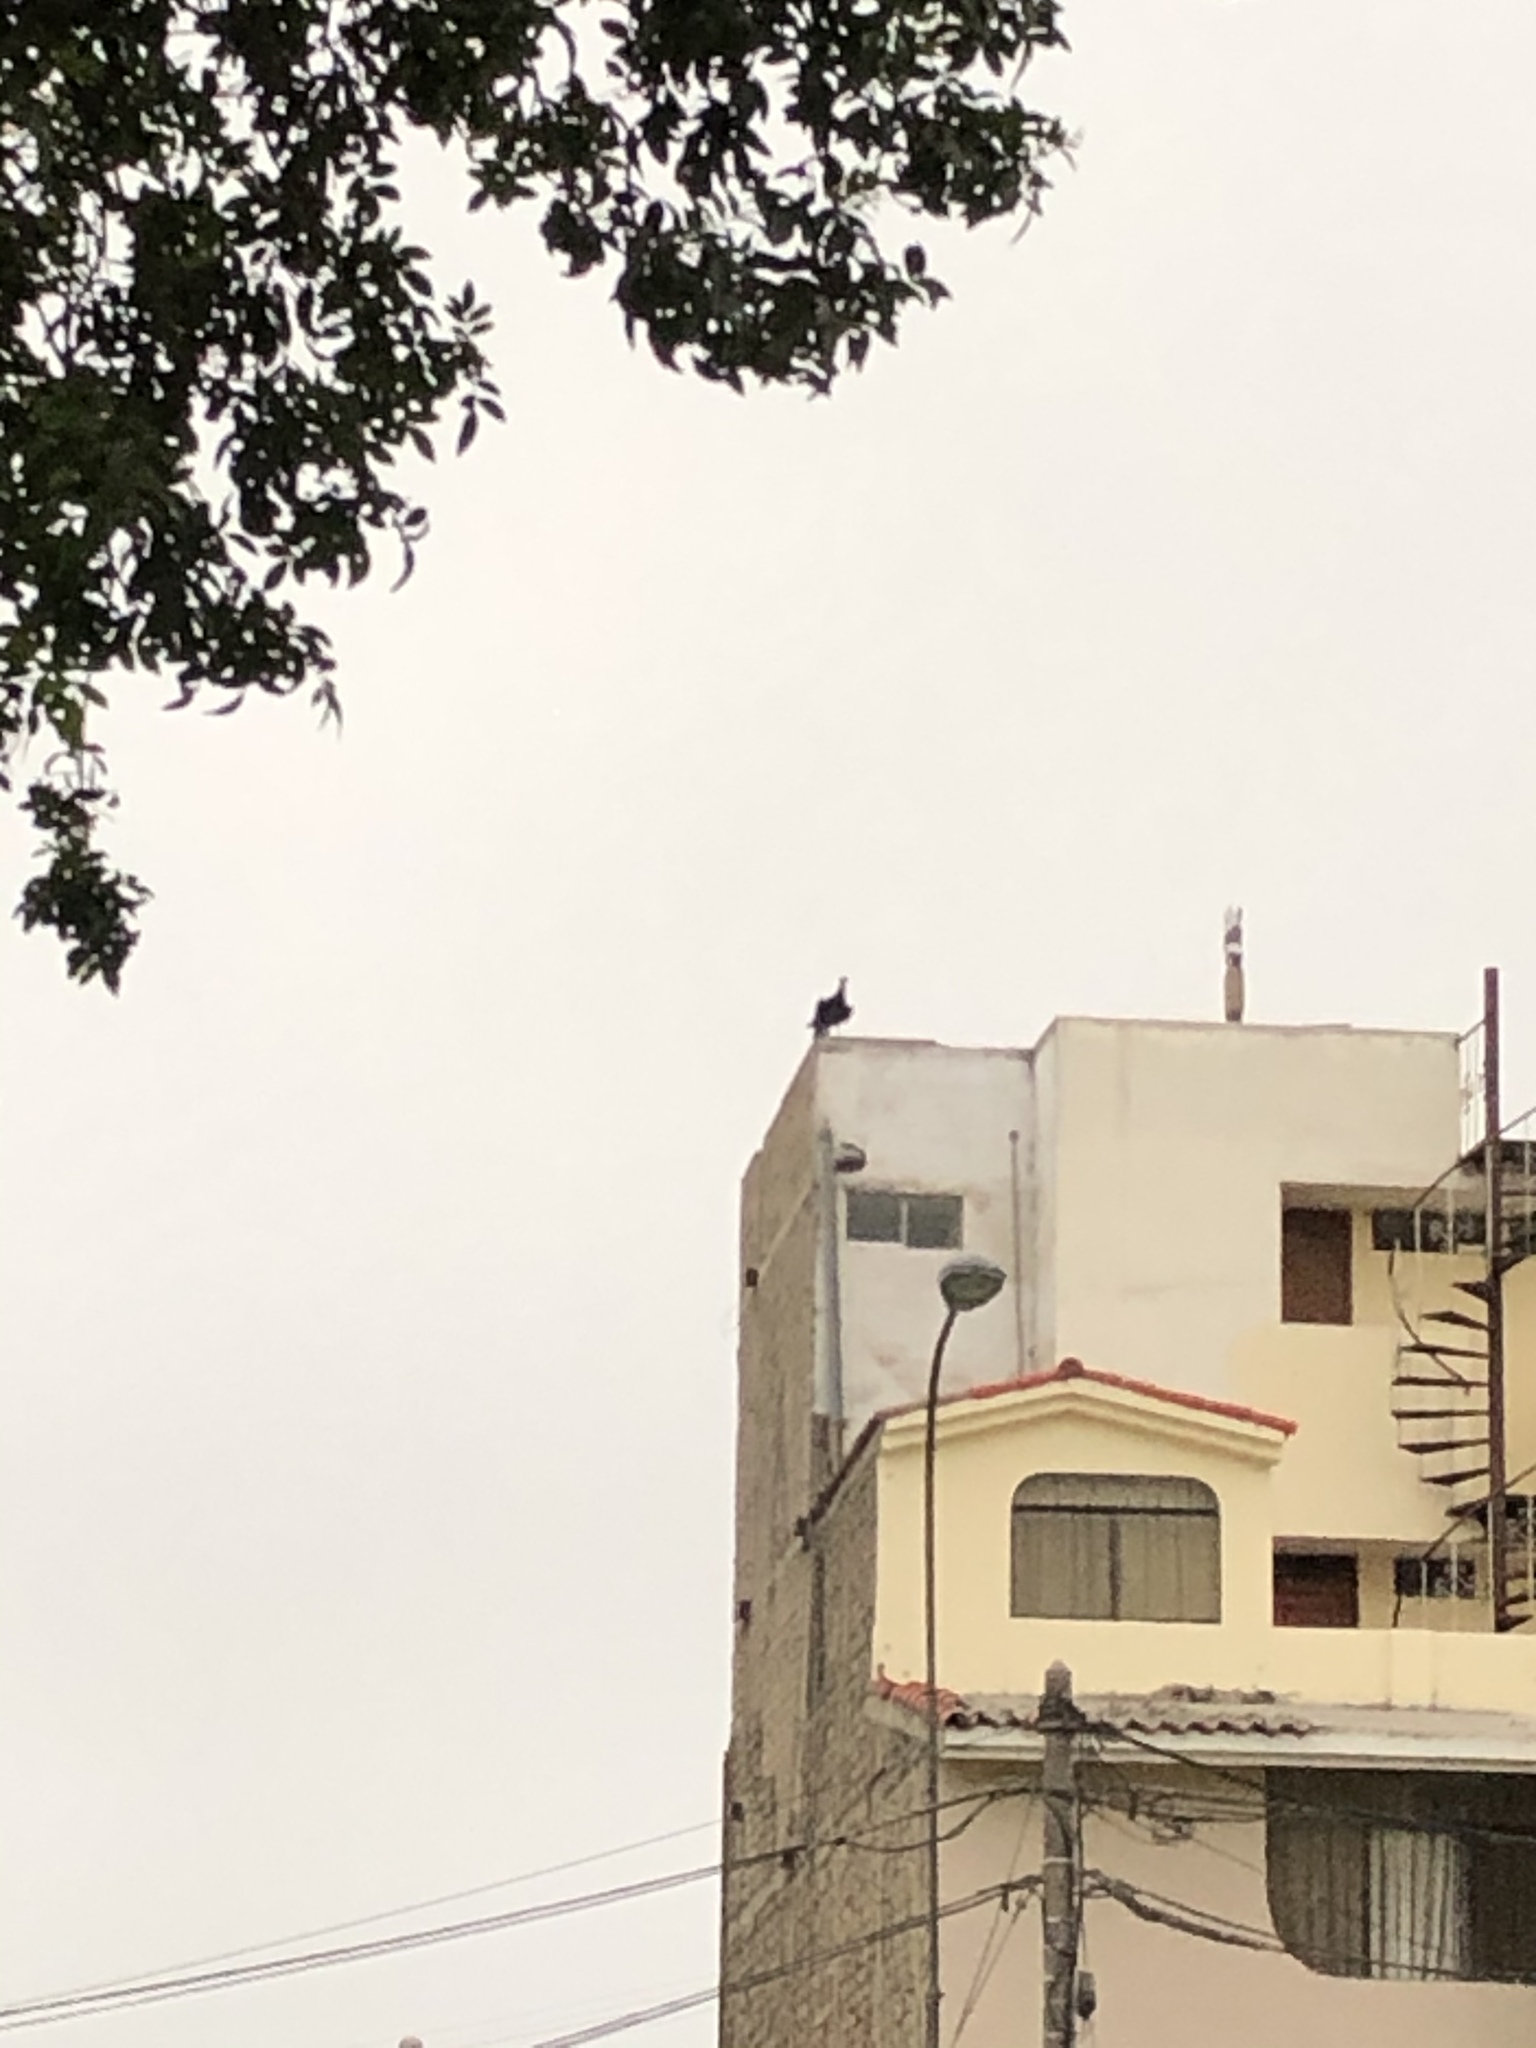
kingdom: Animalia
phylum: Chordata
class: Aves
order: Accipitriformes
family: Cathartidae
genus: Coragyps
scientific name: Coragyps atratus
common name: Black vulture
